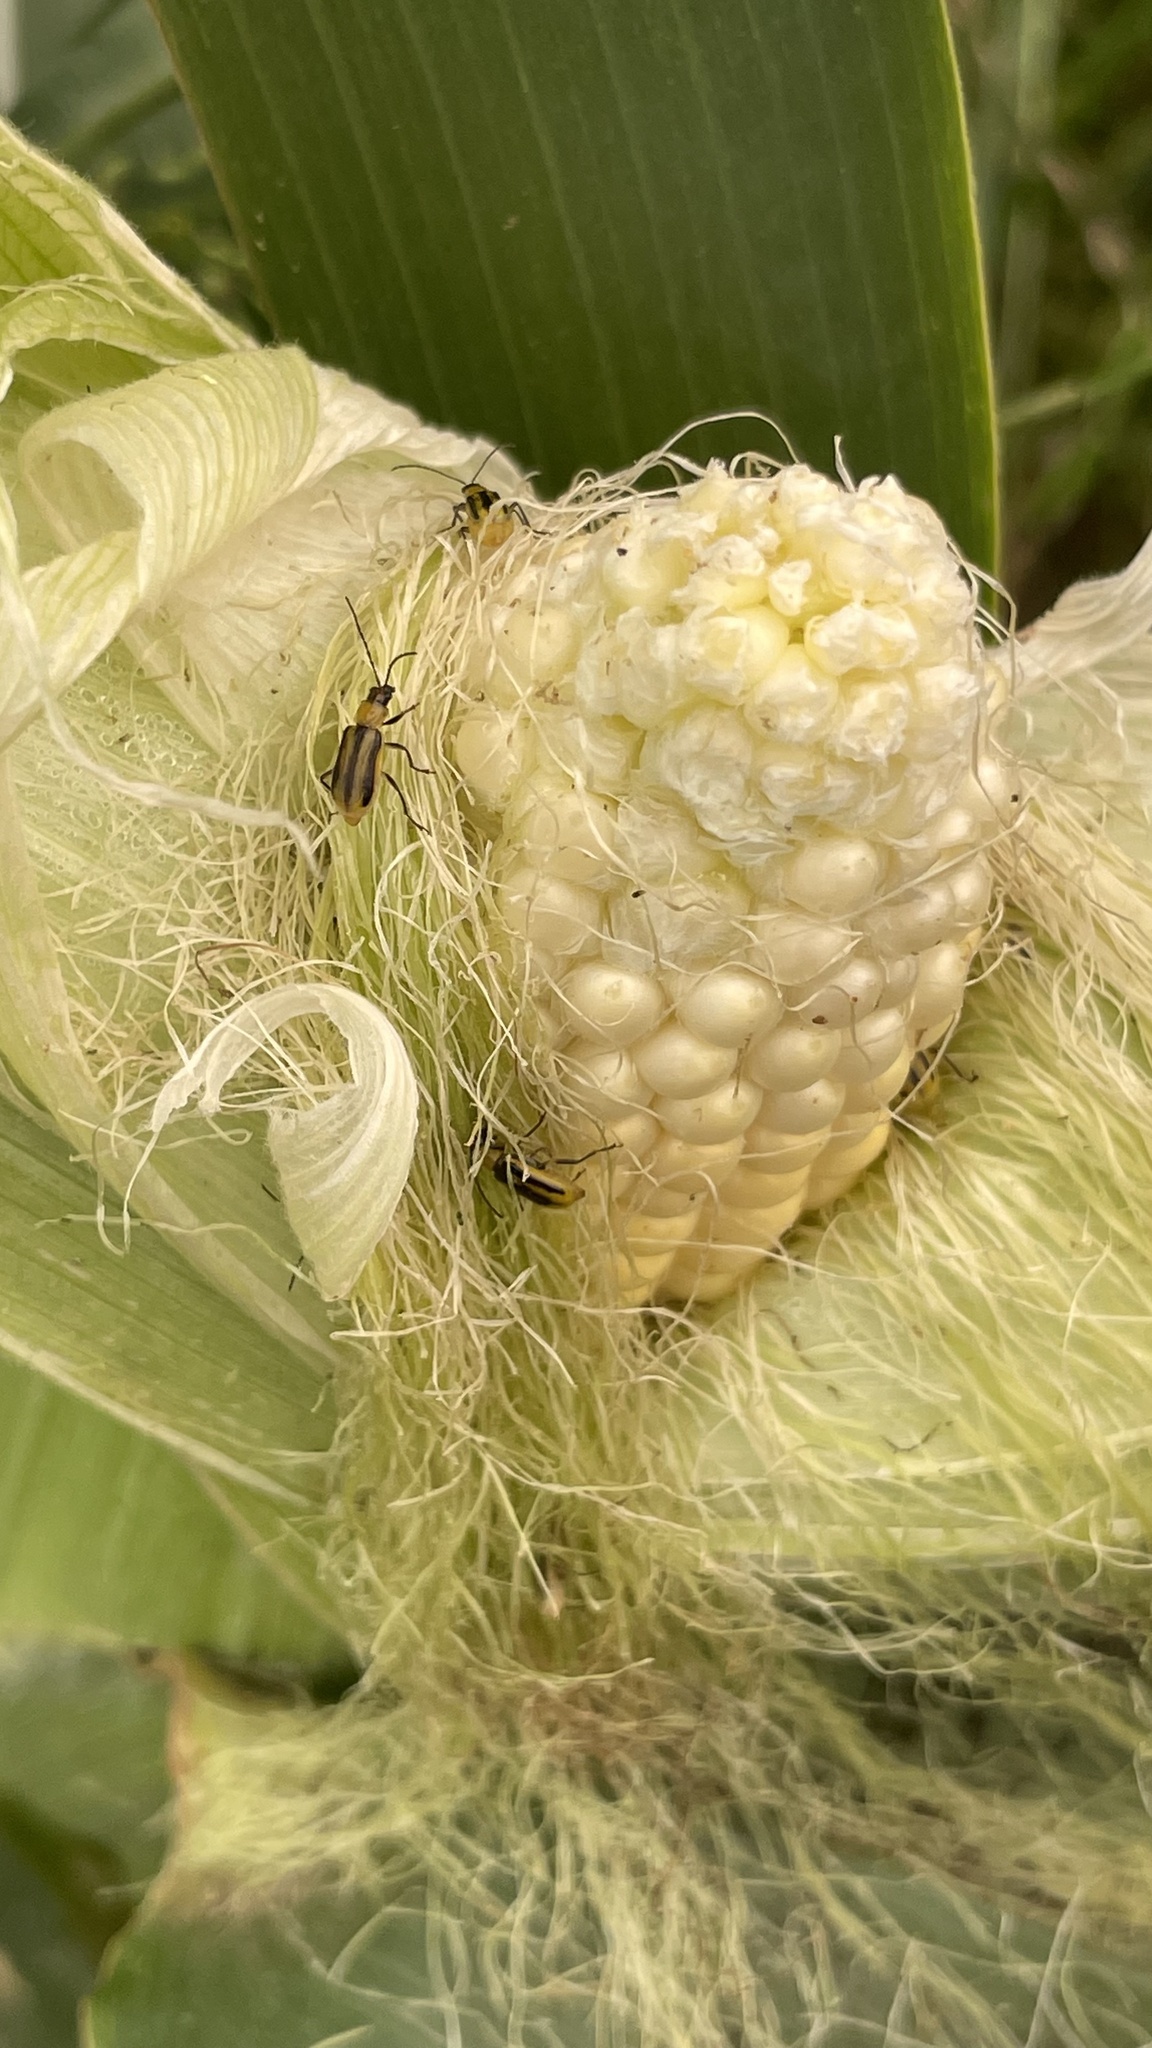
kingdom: Animalia
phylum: Arthropoda
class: Insecta
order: Coleoptera
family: Chrysomelidae
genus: Diabrotica
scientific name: Diabrotica virgifera
